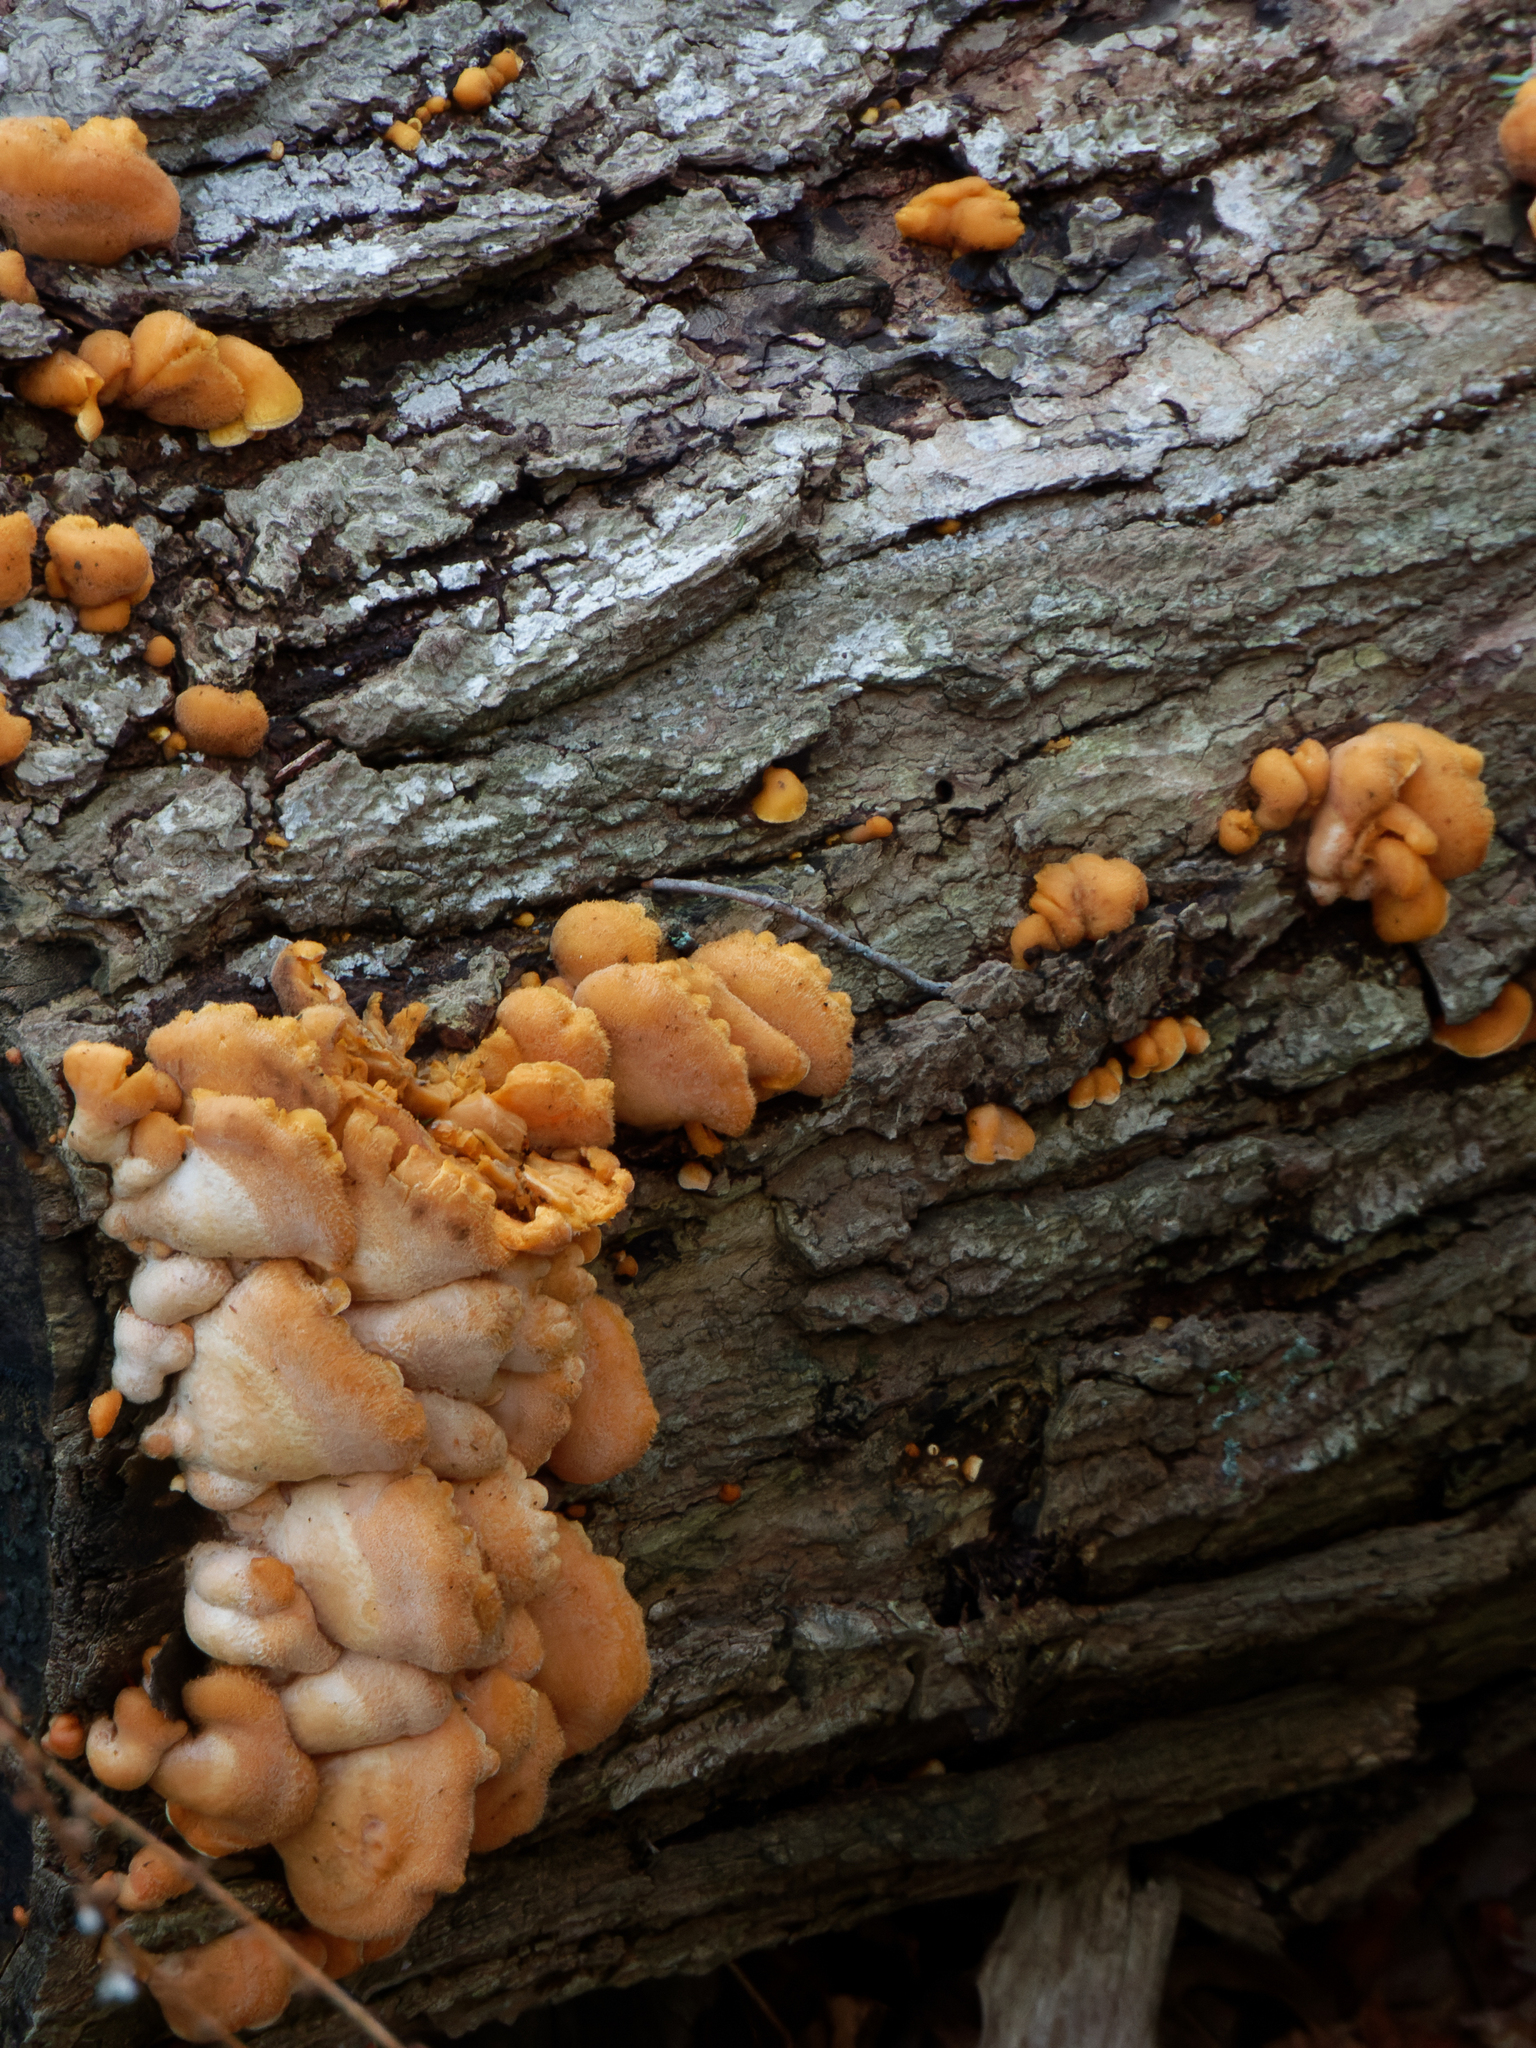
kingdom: Fungi
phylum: Basidiomycota
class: Agaricomycetes
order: Agaricales
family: Phyllotopsidaceae
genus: Phyllotopsis
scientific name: Phyllotopsis nidulans
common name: Orange mock oyster
